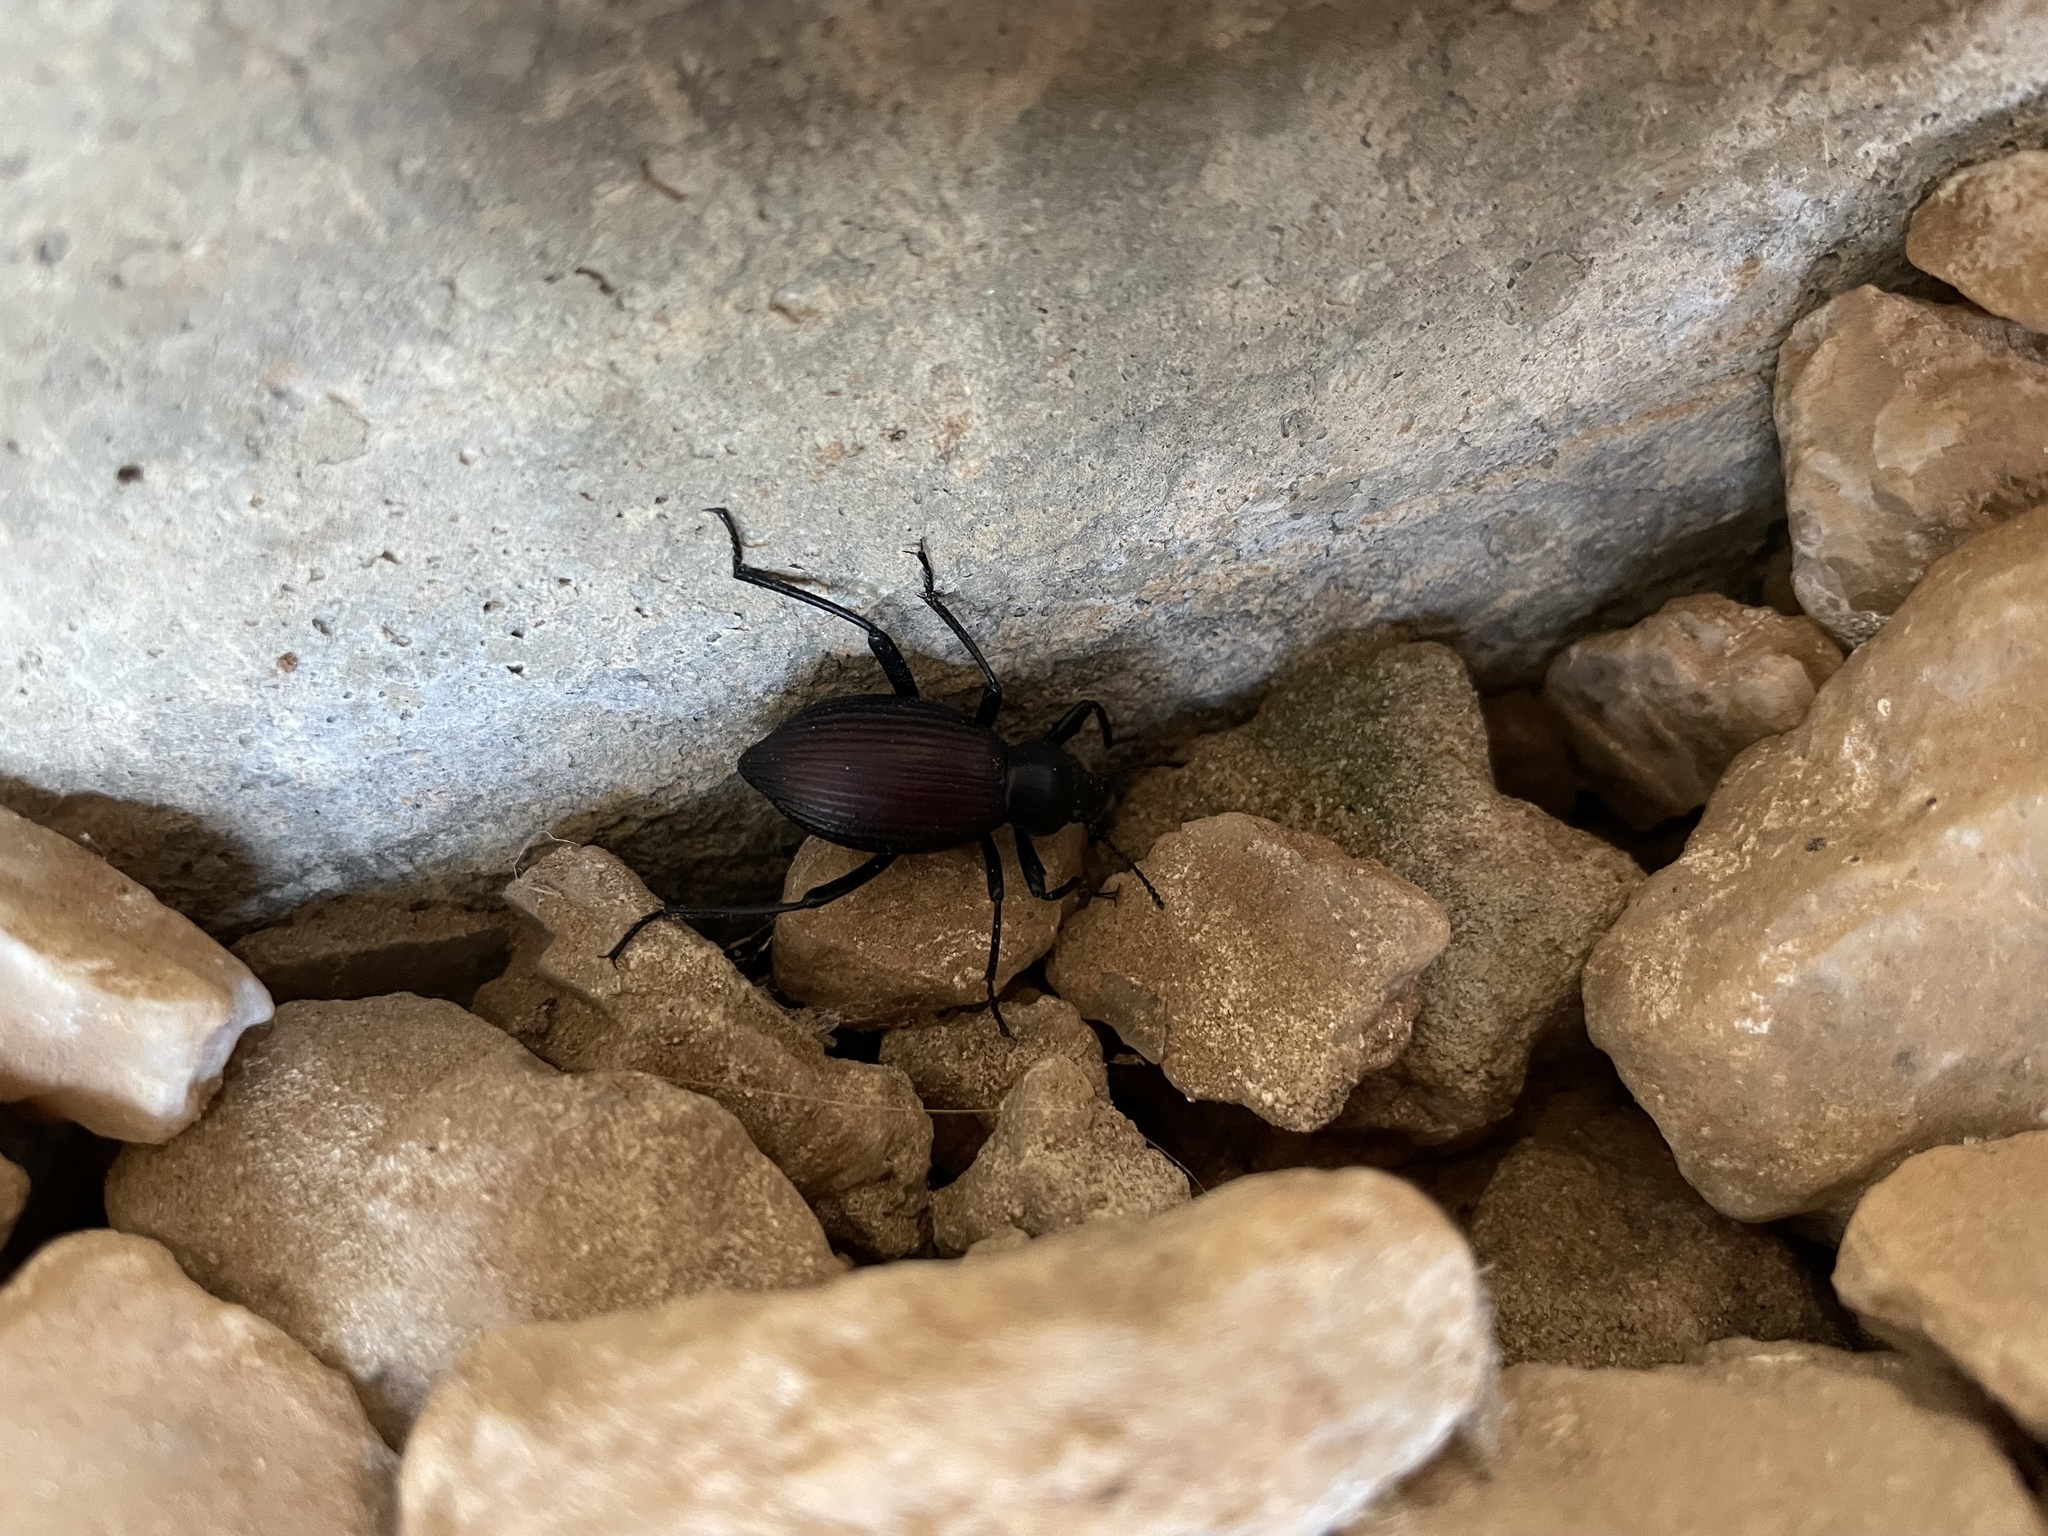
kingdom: Animalia
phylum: Arthropoda
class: Insecta
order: Coleoptera
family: Tenebrionidae
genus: Eleodes
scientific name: Eleodes hispilabris
